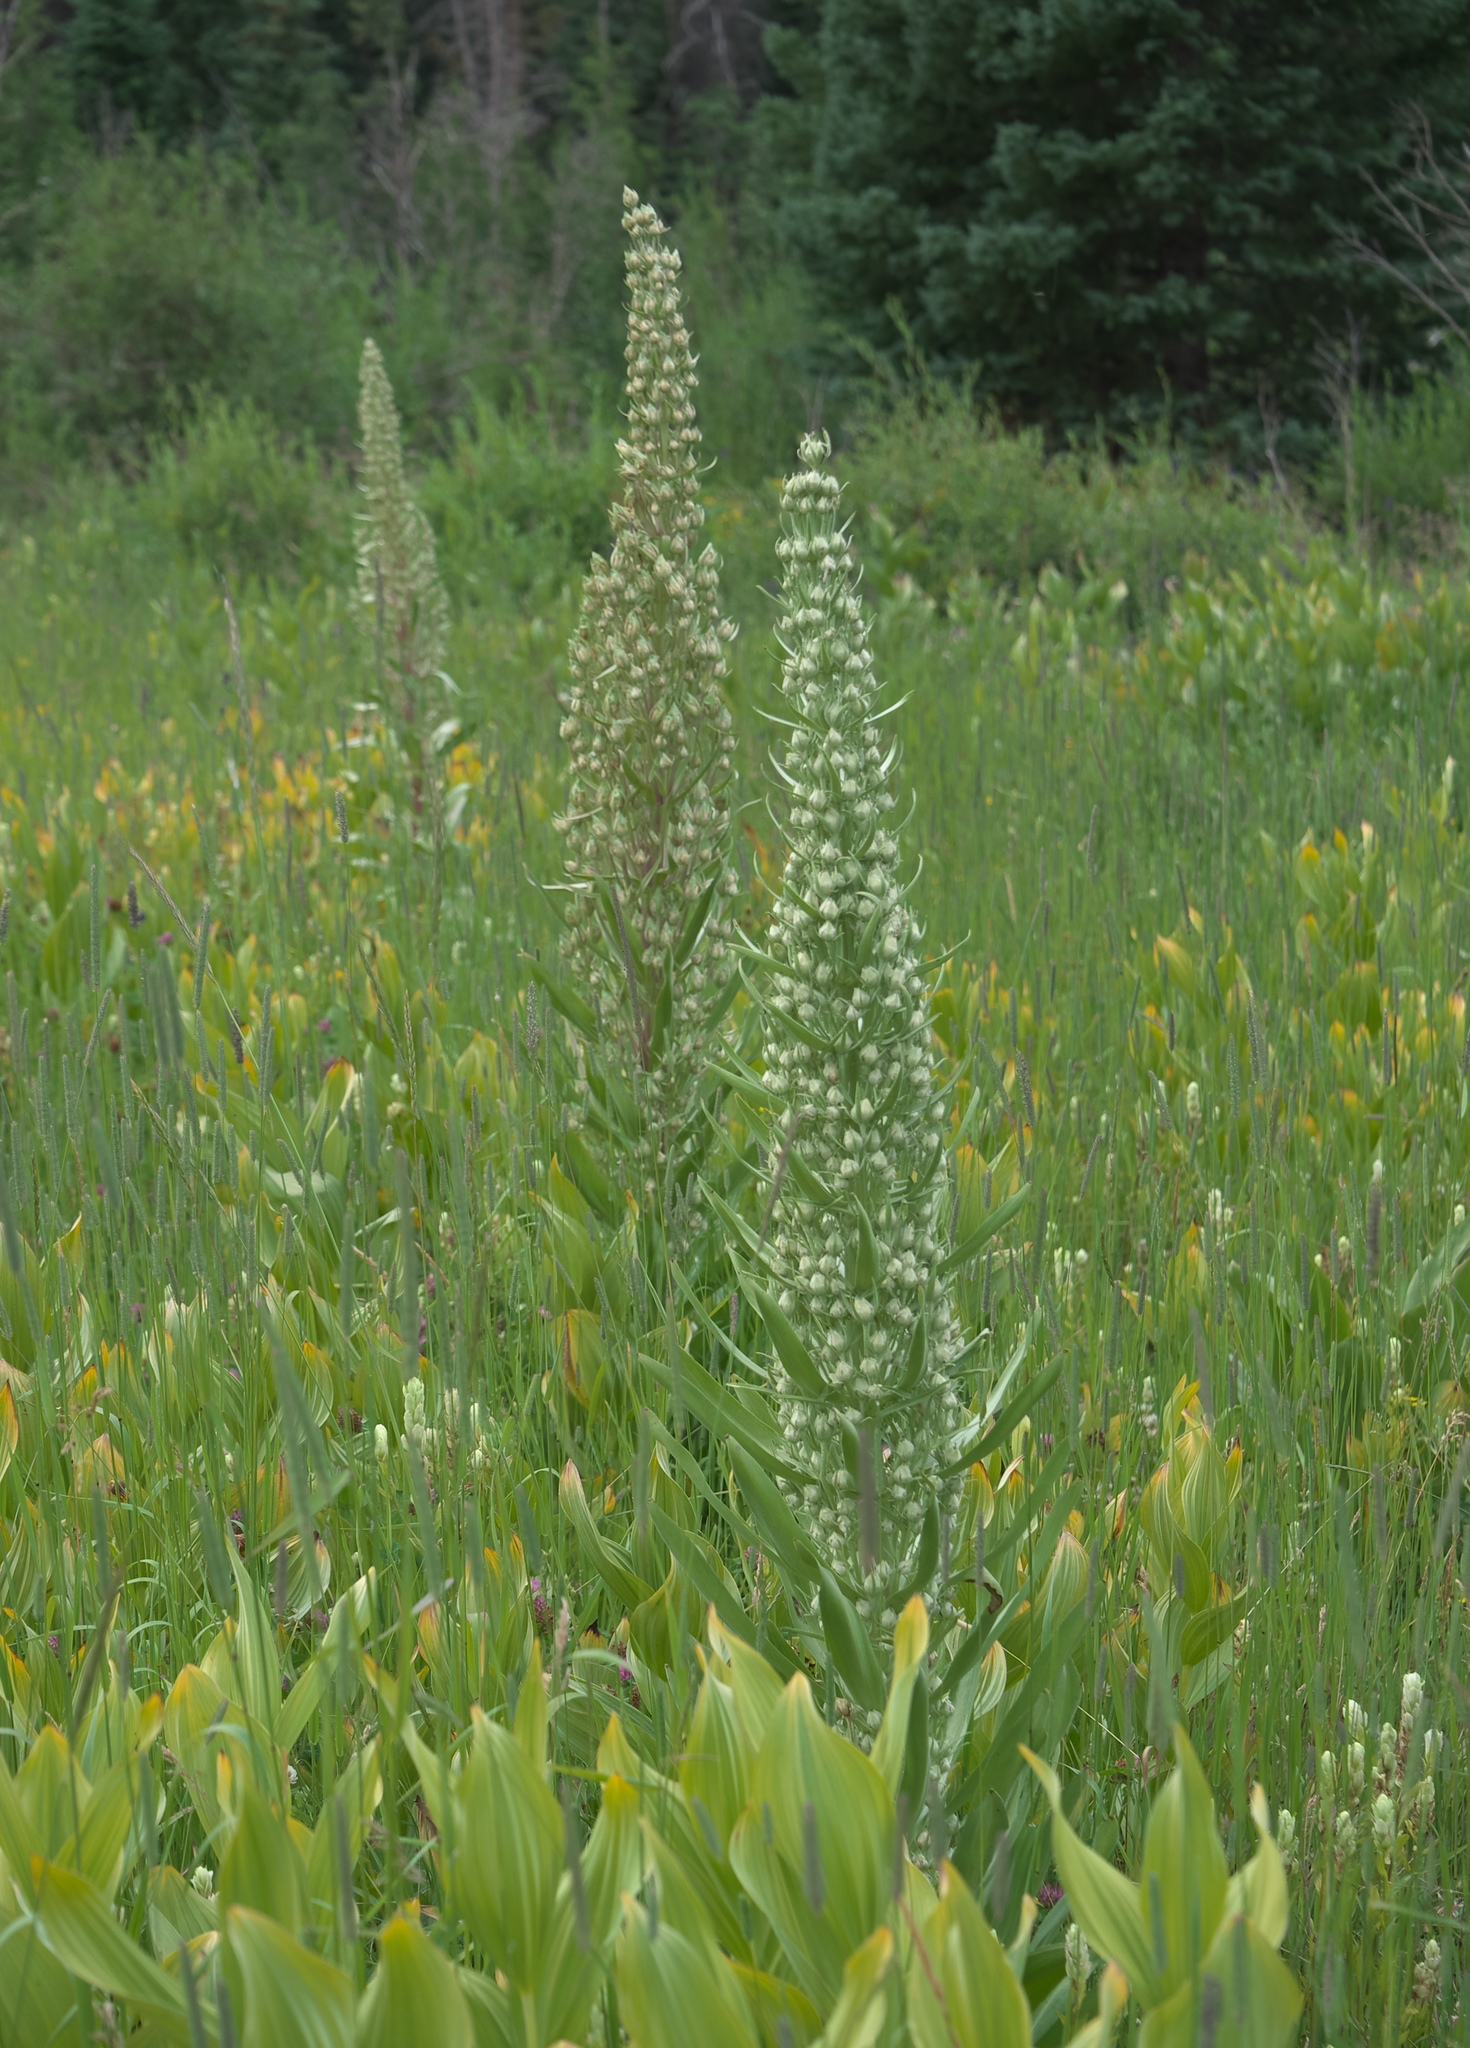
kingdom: Plantae
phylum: Tracheophyta
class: Magnoliopsida
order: Gentianales
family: Gentianaceae
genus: Frasera
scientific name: Frasera speciosa
